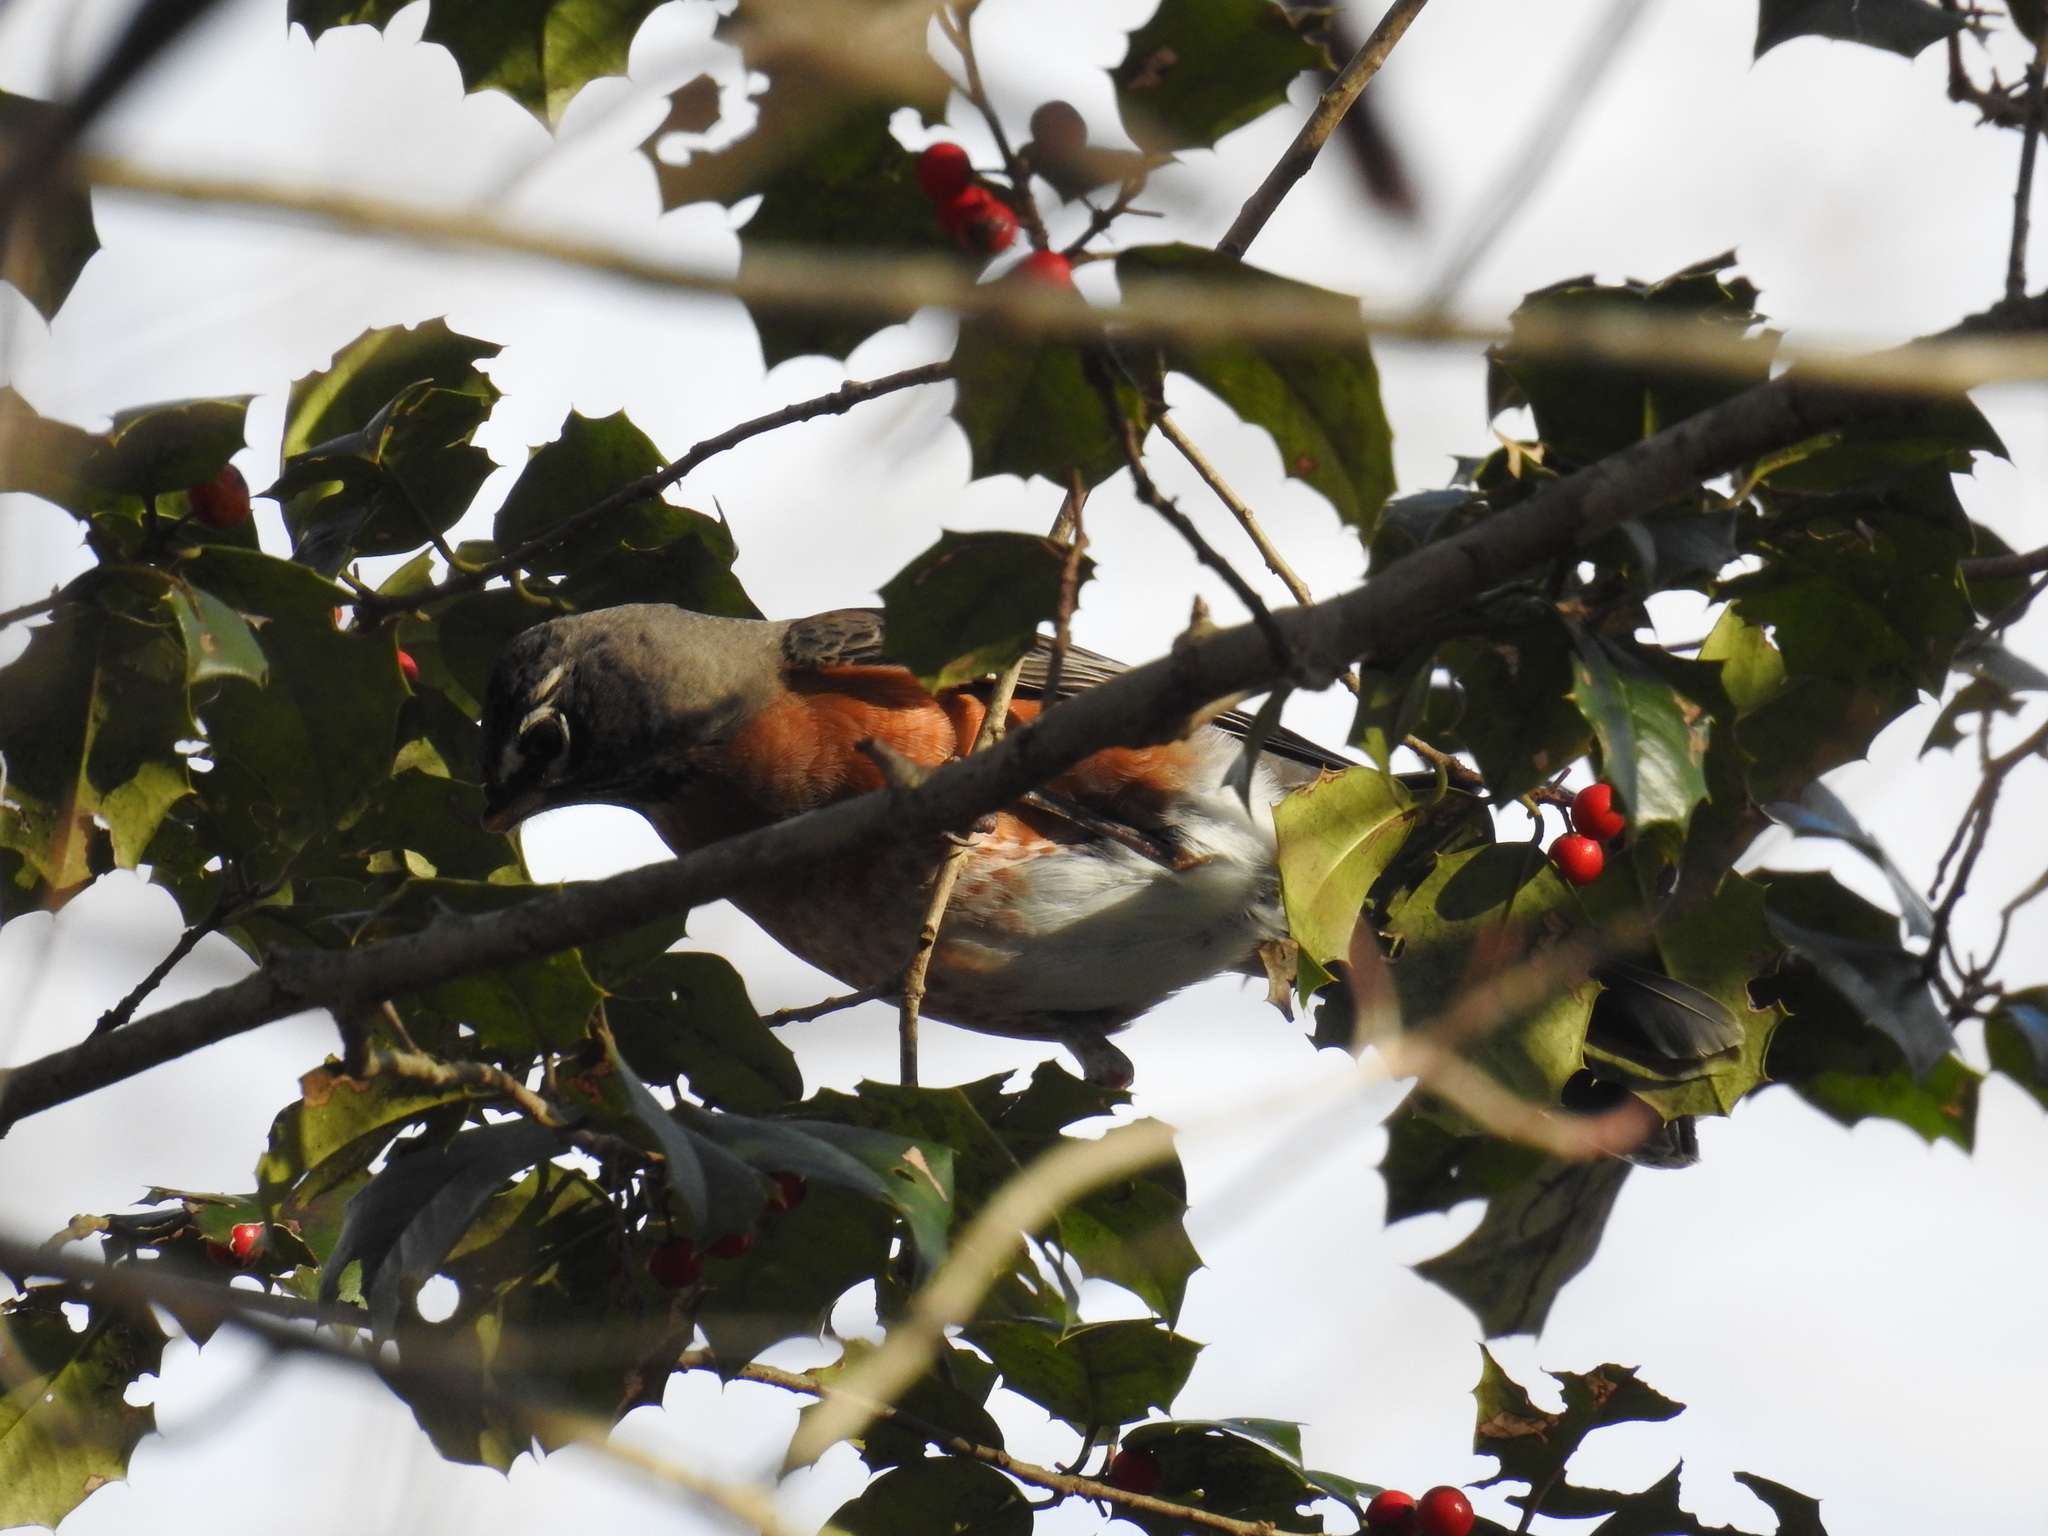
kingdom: Animalia
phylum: Chordata
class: Aves
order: Passeriformes
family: Turdidae
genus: Turdus
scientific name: Turdus migratorius
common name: American robin
